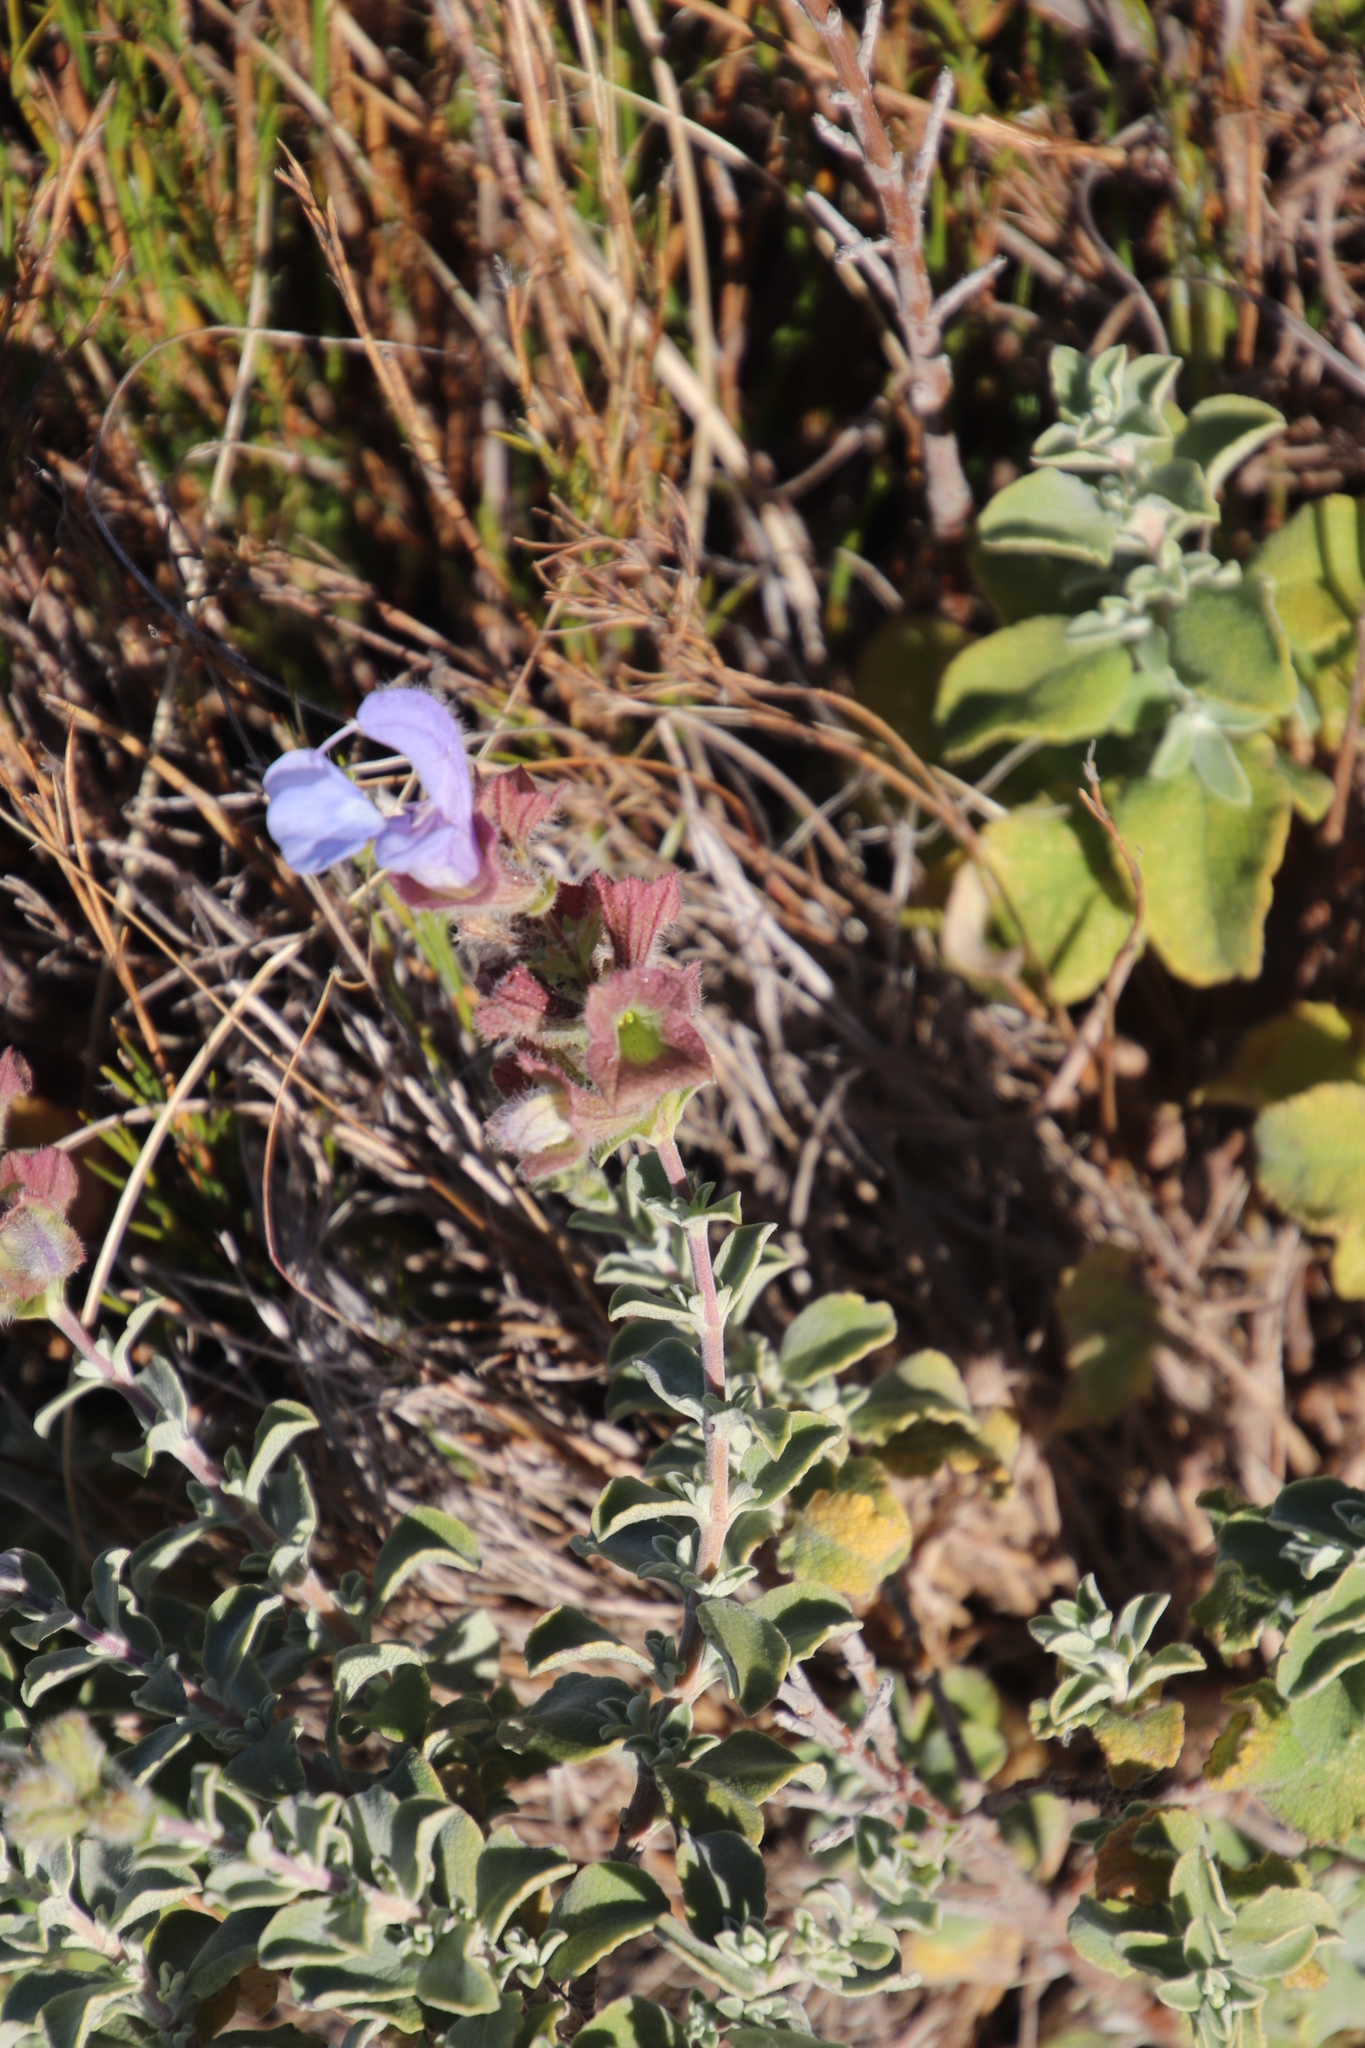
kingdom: Plantae
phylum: Tracheophyta
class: Magnoliopsida
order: Lamiales
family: Lamiaceae
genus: Salvia
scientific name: Salvia africana
